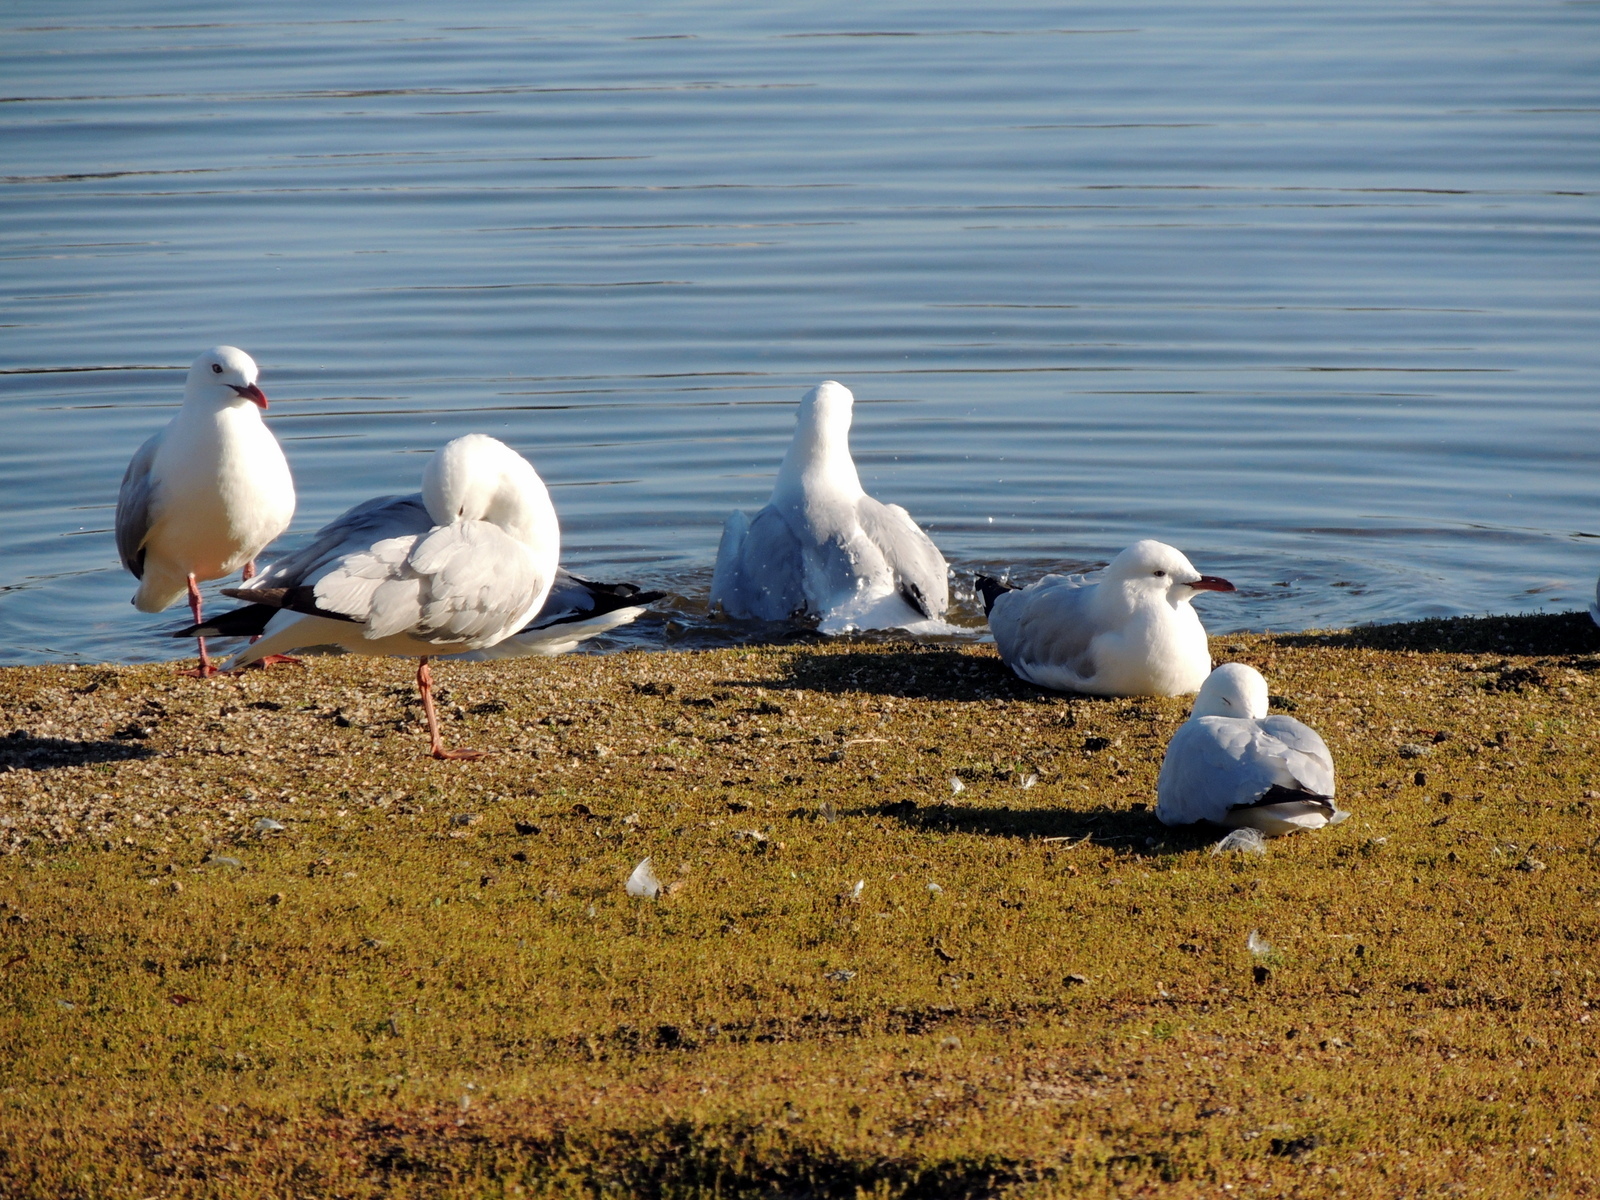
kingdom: Animalia
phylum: Chordata
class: Aves
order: Charadriiformes
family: Laridae
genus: Chroicocephalus
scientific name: Chroicocephalus novaehollandiae
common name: Silver gull
